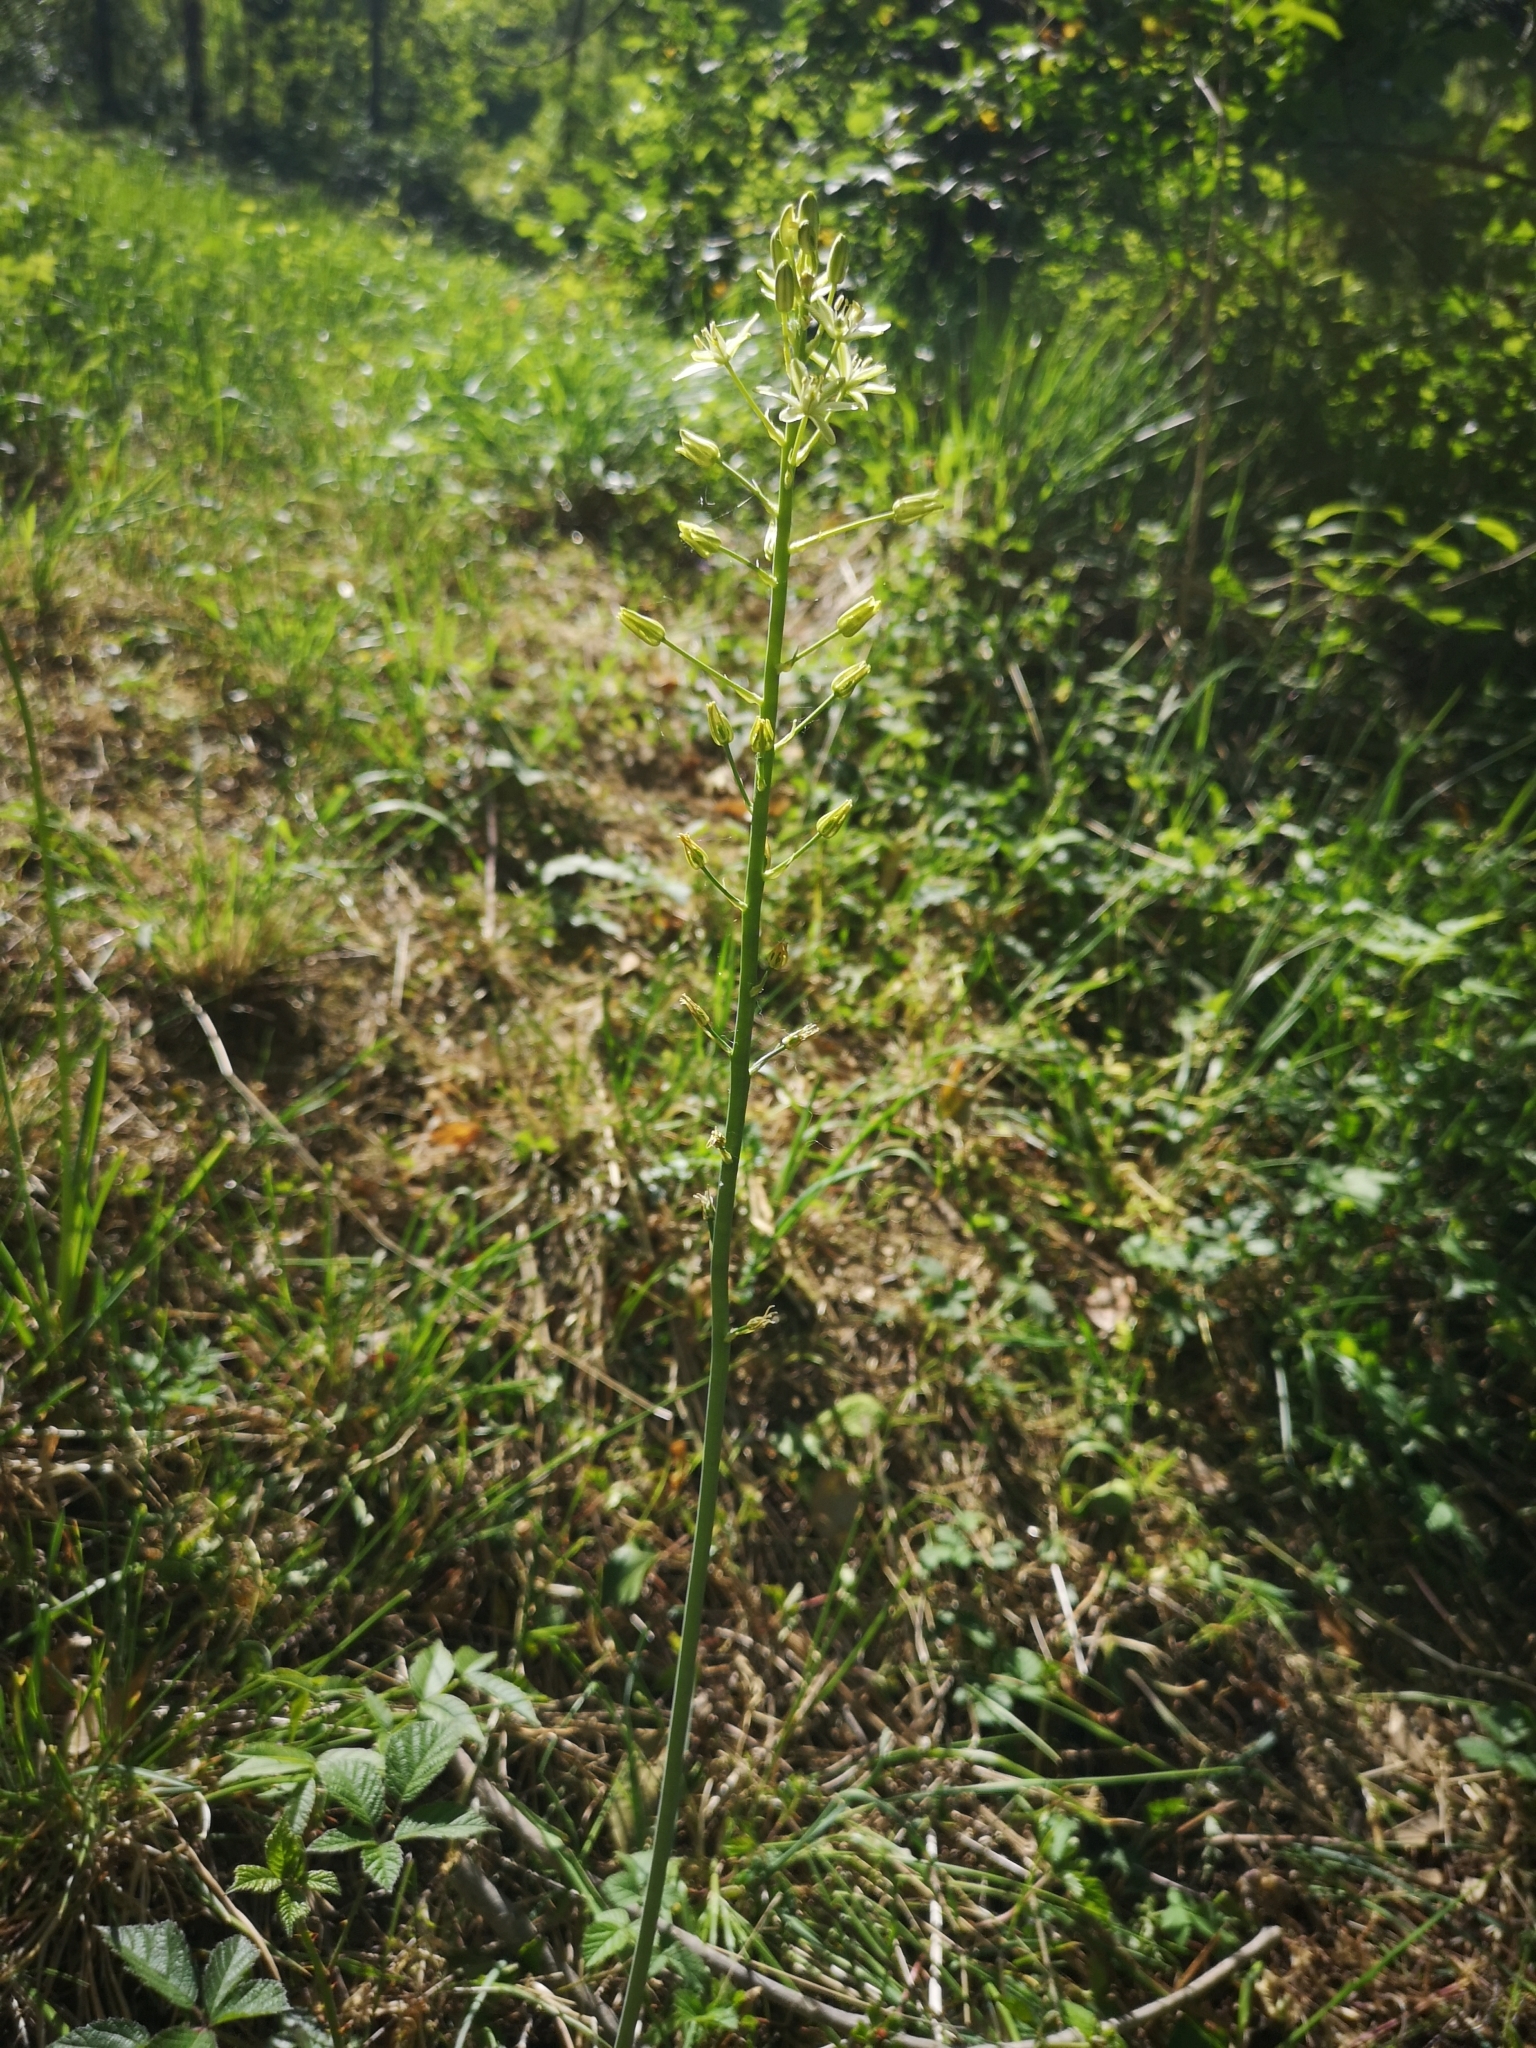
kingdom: Plantae
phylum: Tracheophyta
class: Liliopsida
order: Asparagales
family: Asparagaceae
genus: Ornithogalum
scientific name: Ornithogalum pyrenaicum
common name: Spiked star-of-bethlehem
